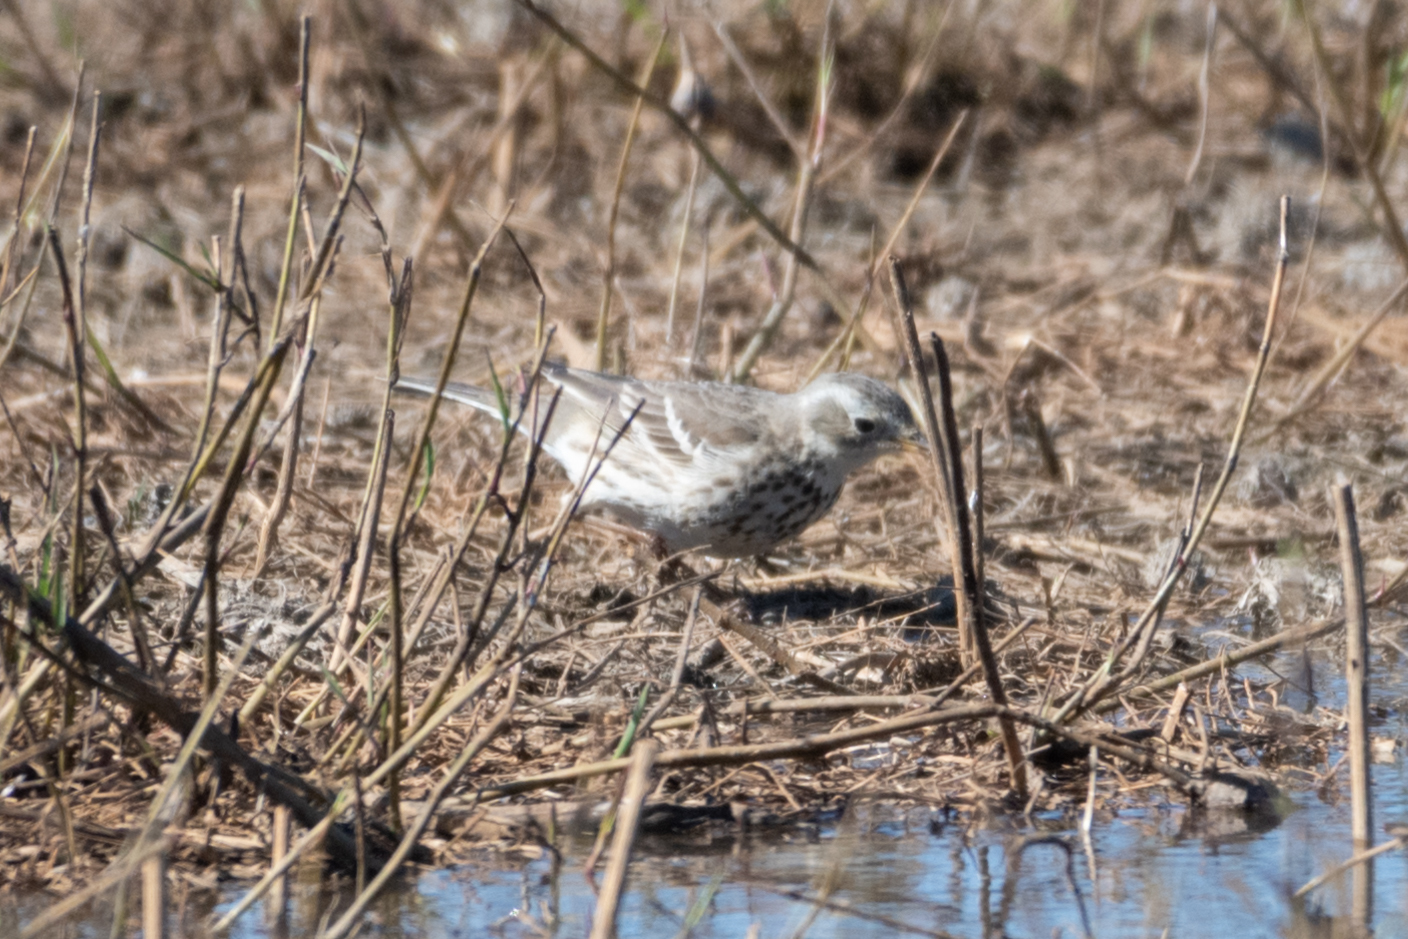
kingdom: Animalia
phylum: Chordata
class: Aves
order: Passeriformes
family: Motacillidae
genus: Anthus
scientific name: Anthus rubescens
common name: Buff-bellied pipit
